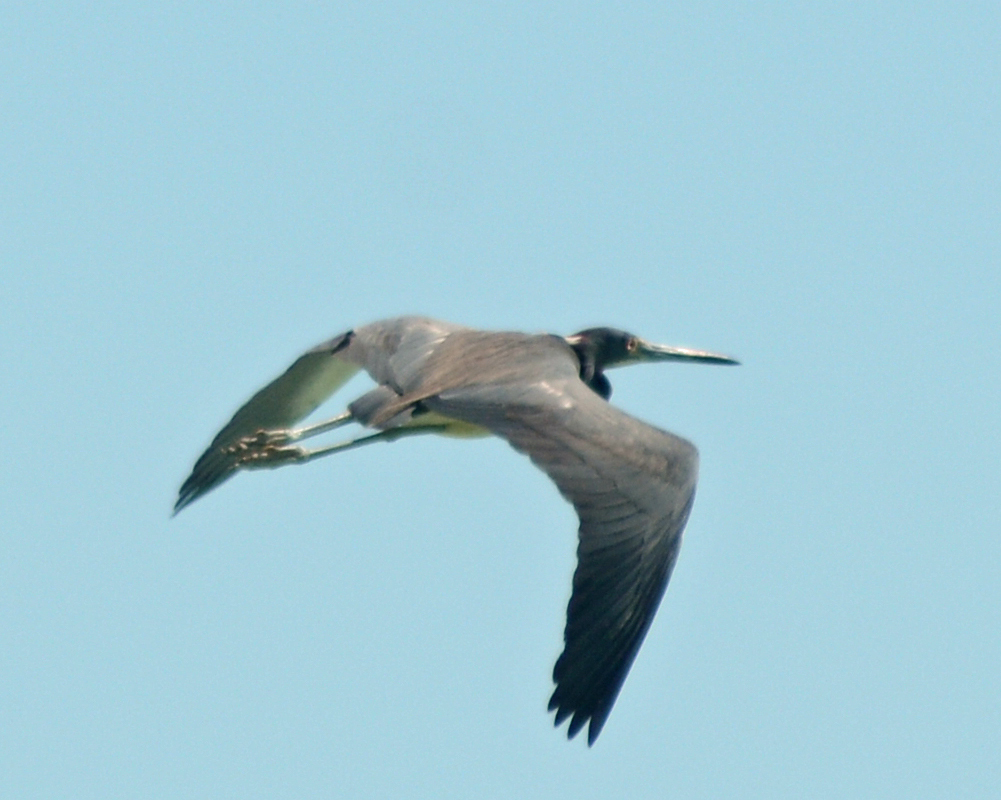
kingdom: Animalia
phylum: Chordata
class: Aves
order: Pelecaniformes
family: Ardeidae
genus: Egretta
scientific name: Egretta tricolor
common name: Tricolored heron
